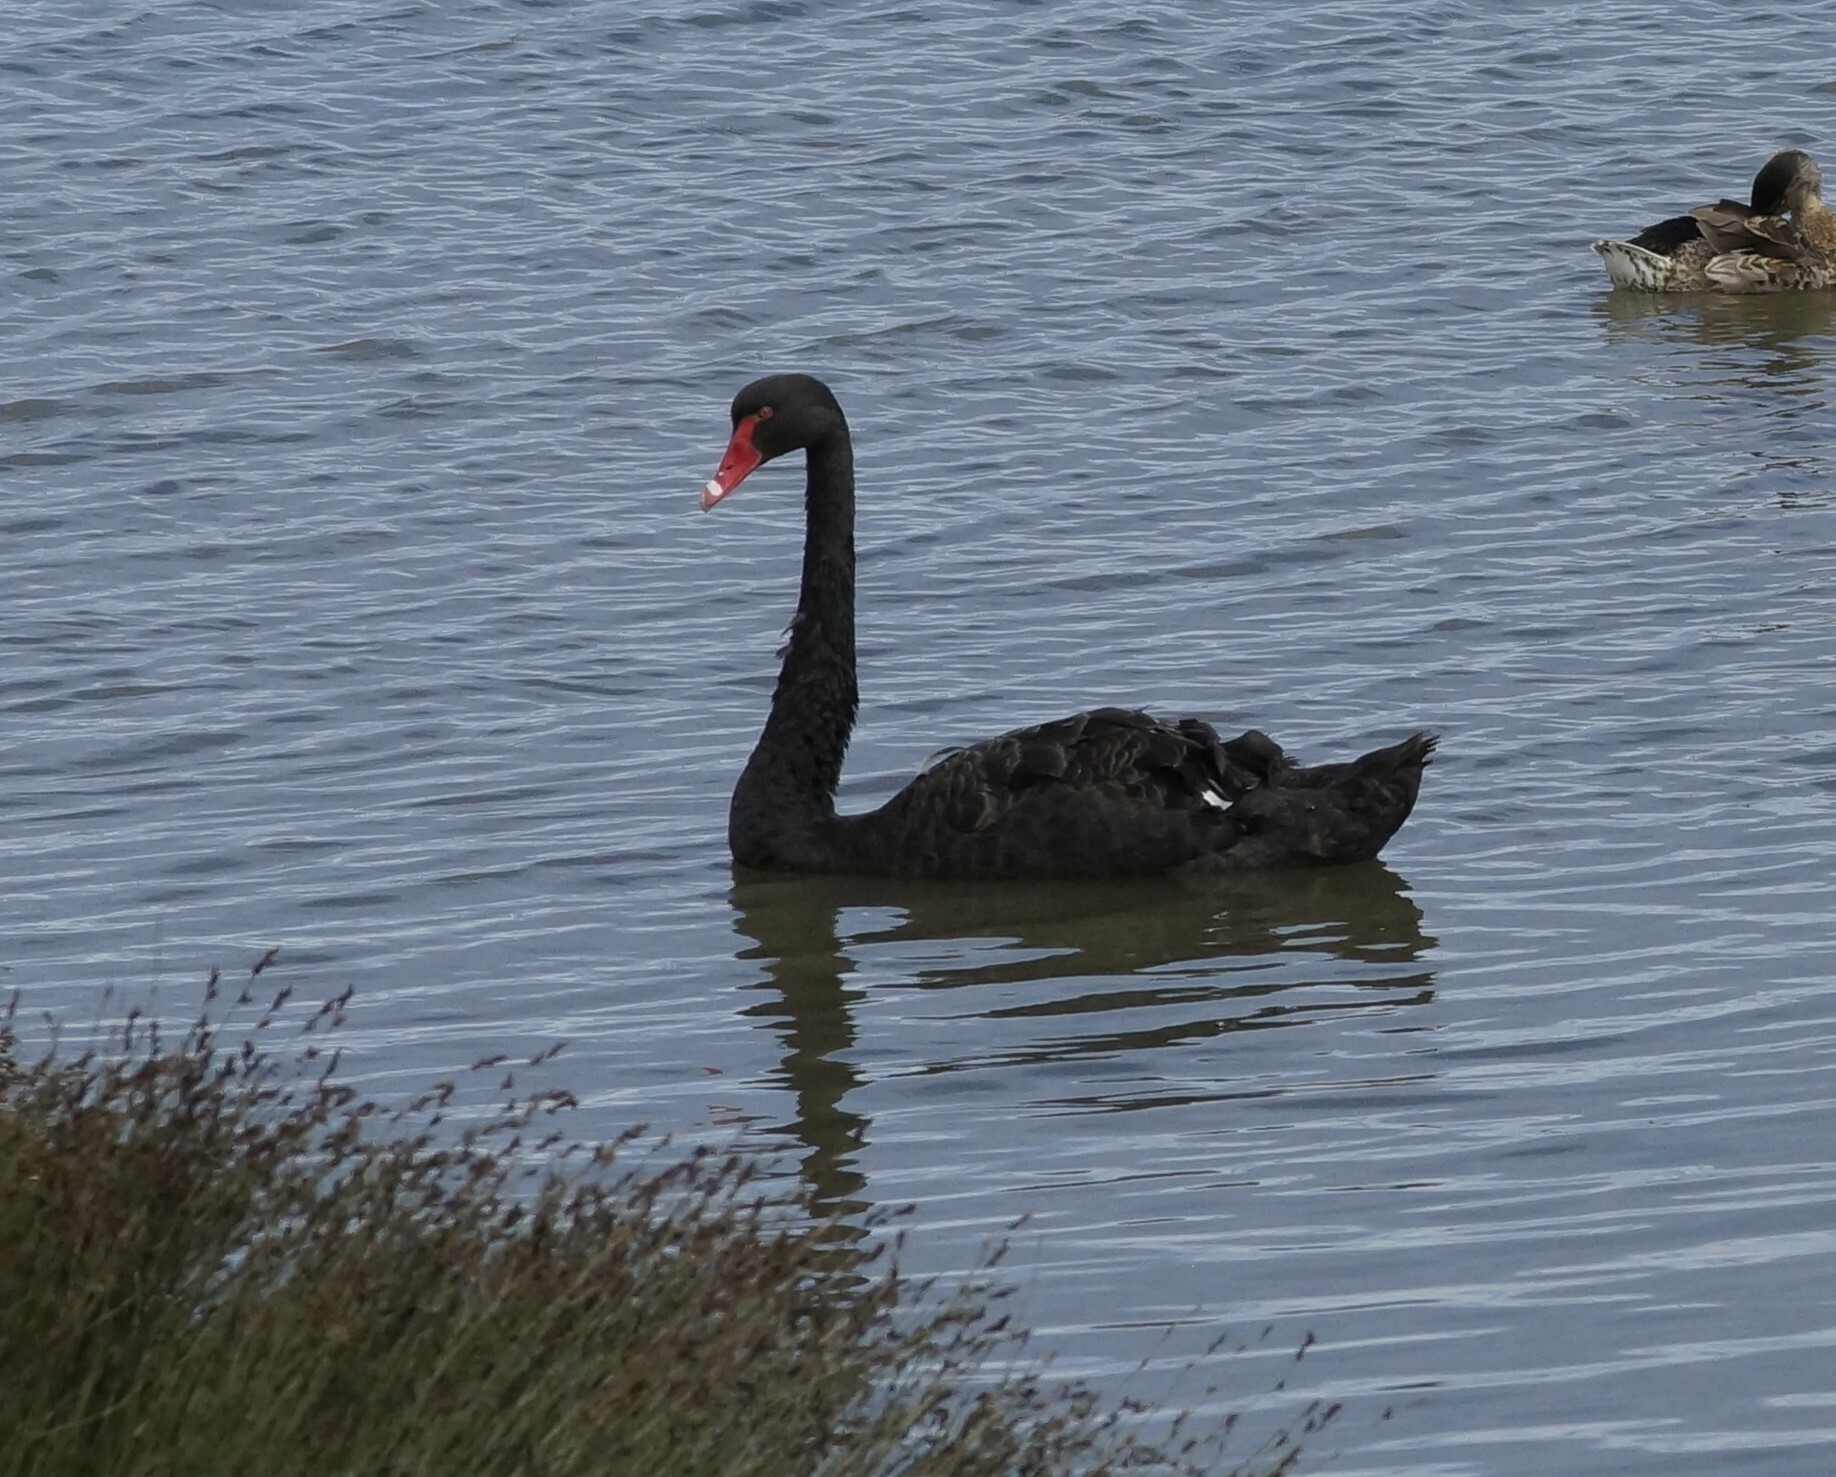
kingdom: Animalia
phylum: Chordata
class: Aves
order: Anseriformes
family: Anatidae
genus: Cygnus
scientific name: Cygnus atratus
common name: Black swan
